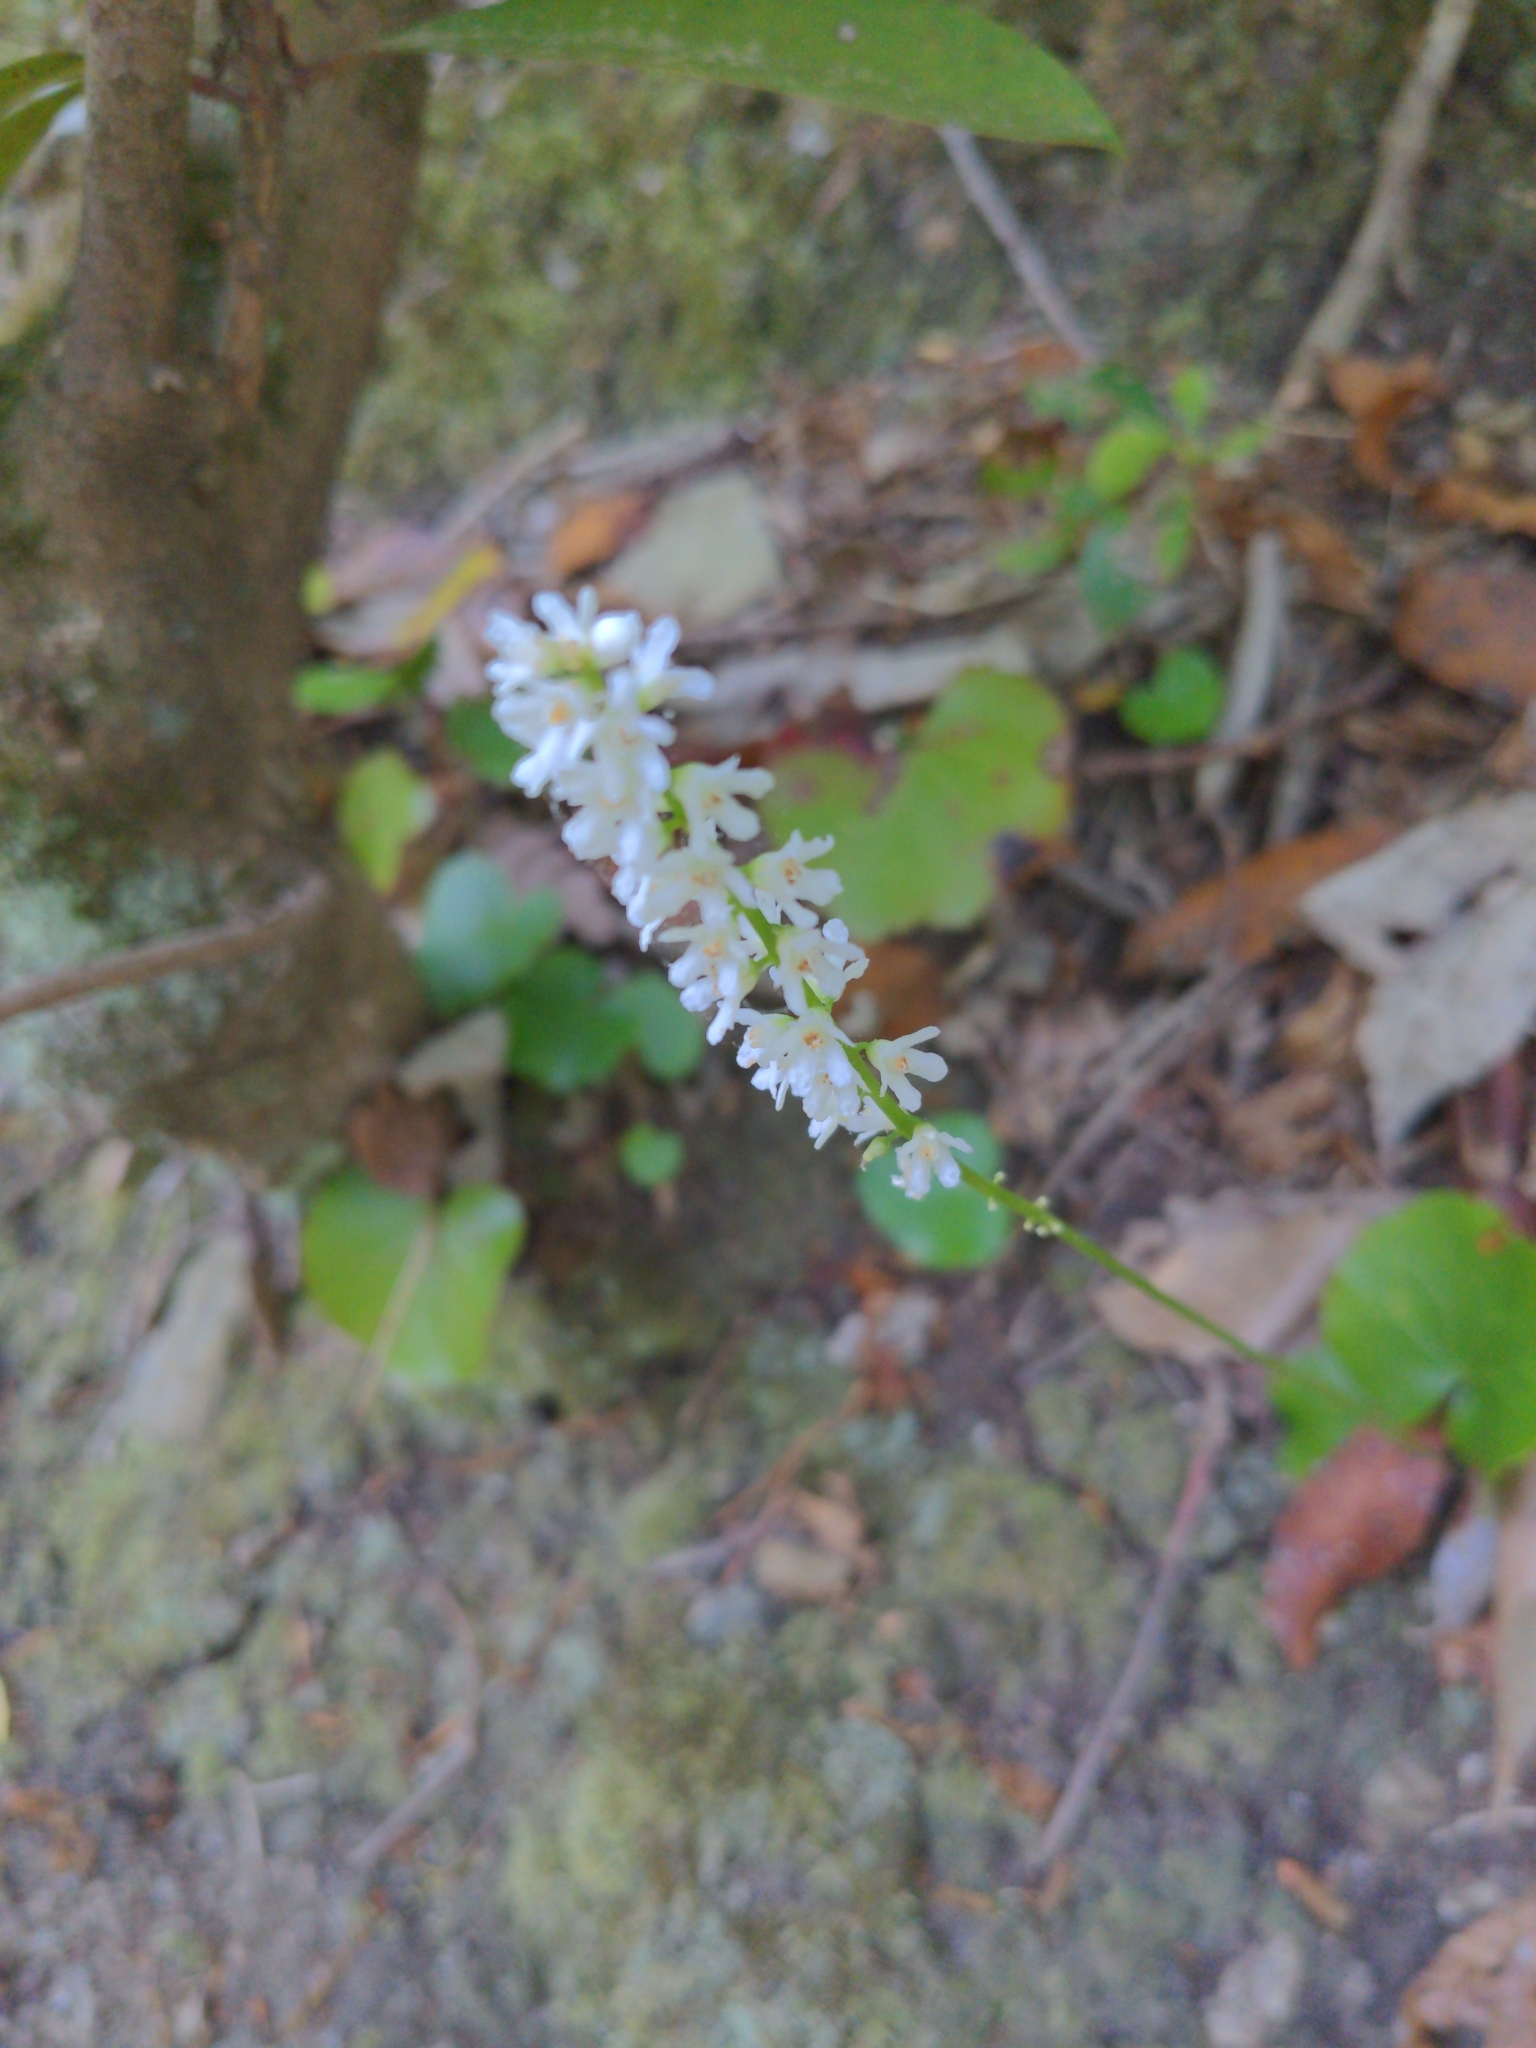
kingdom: Plantae
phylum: Tracheophyta
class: Magnoliopsida
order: Ericales
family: Diapensiaceae
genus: Galax
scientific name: Galax urceolata
